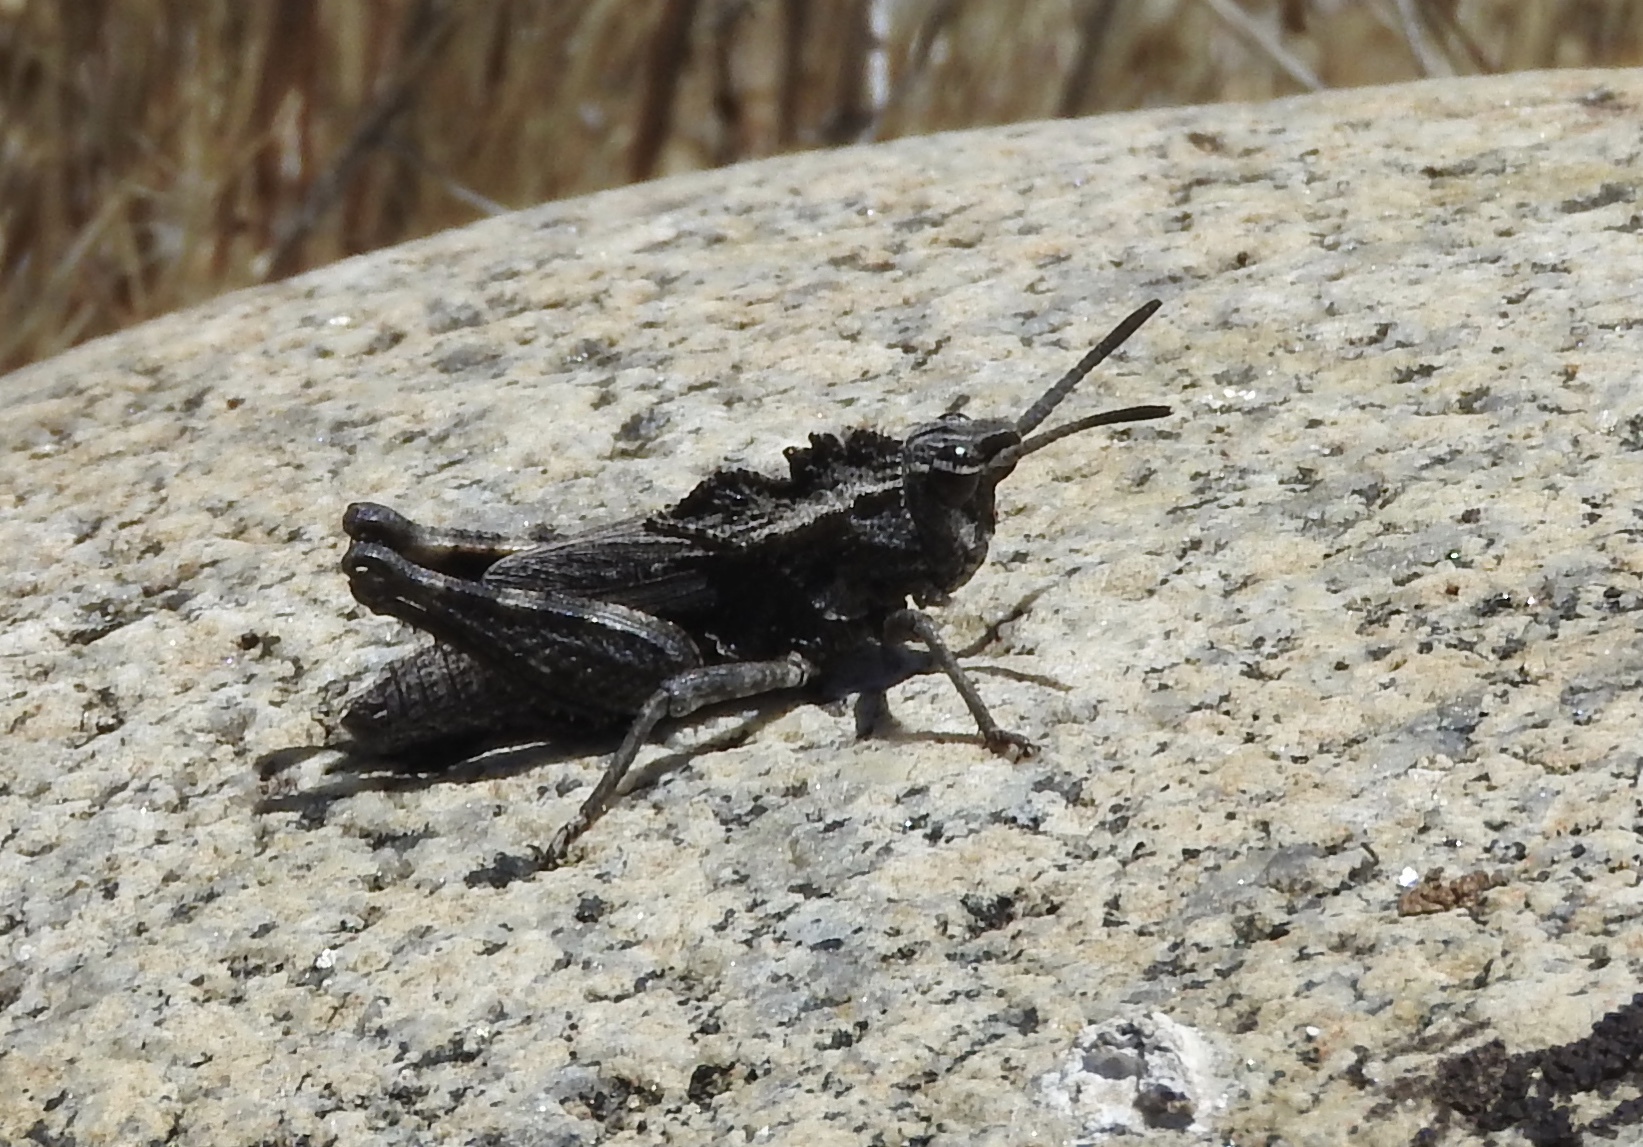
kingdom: Animalia
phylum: Arthropoda
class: Insecta
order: Orthoptera
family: Romaleidae
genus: Dracotettix
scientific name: Dracotettix monstrosus
